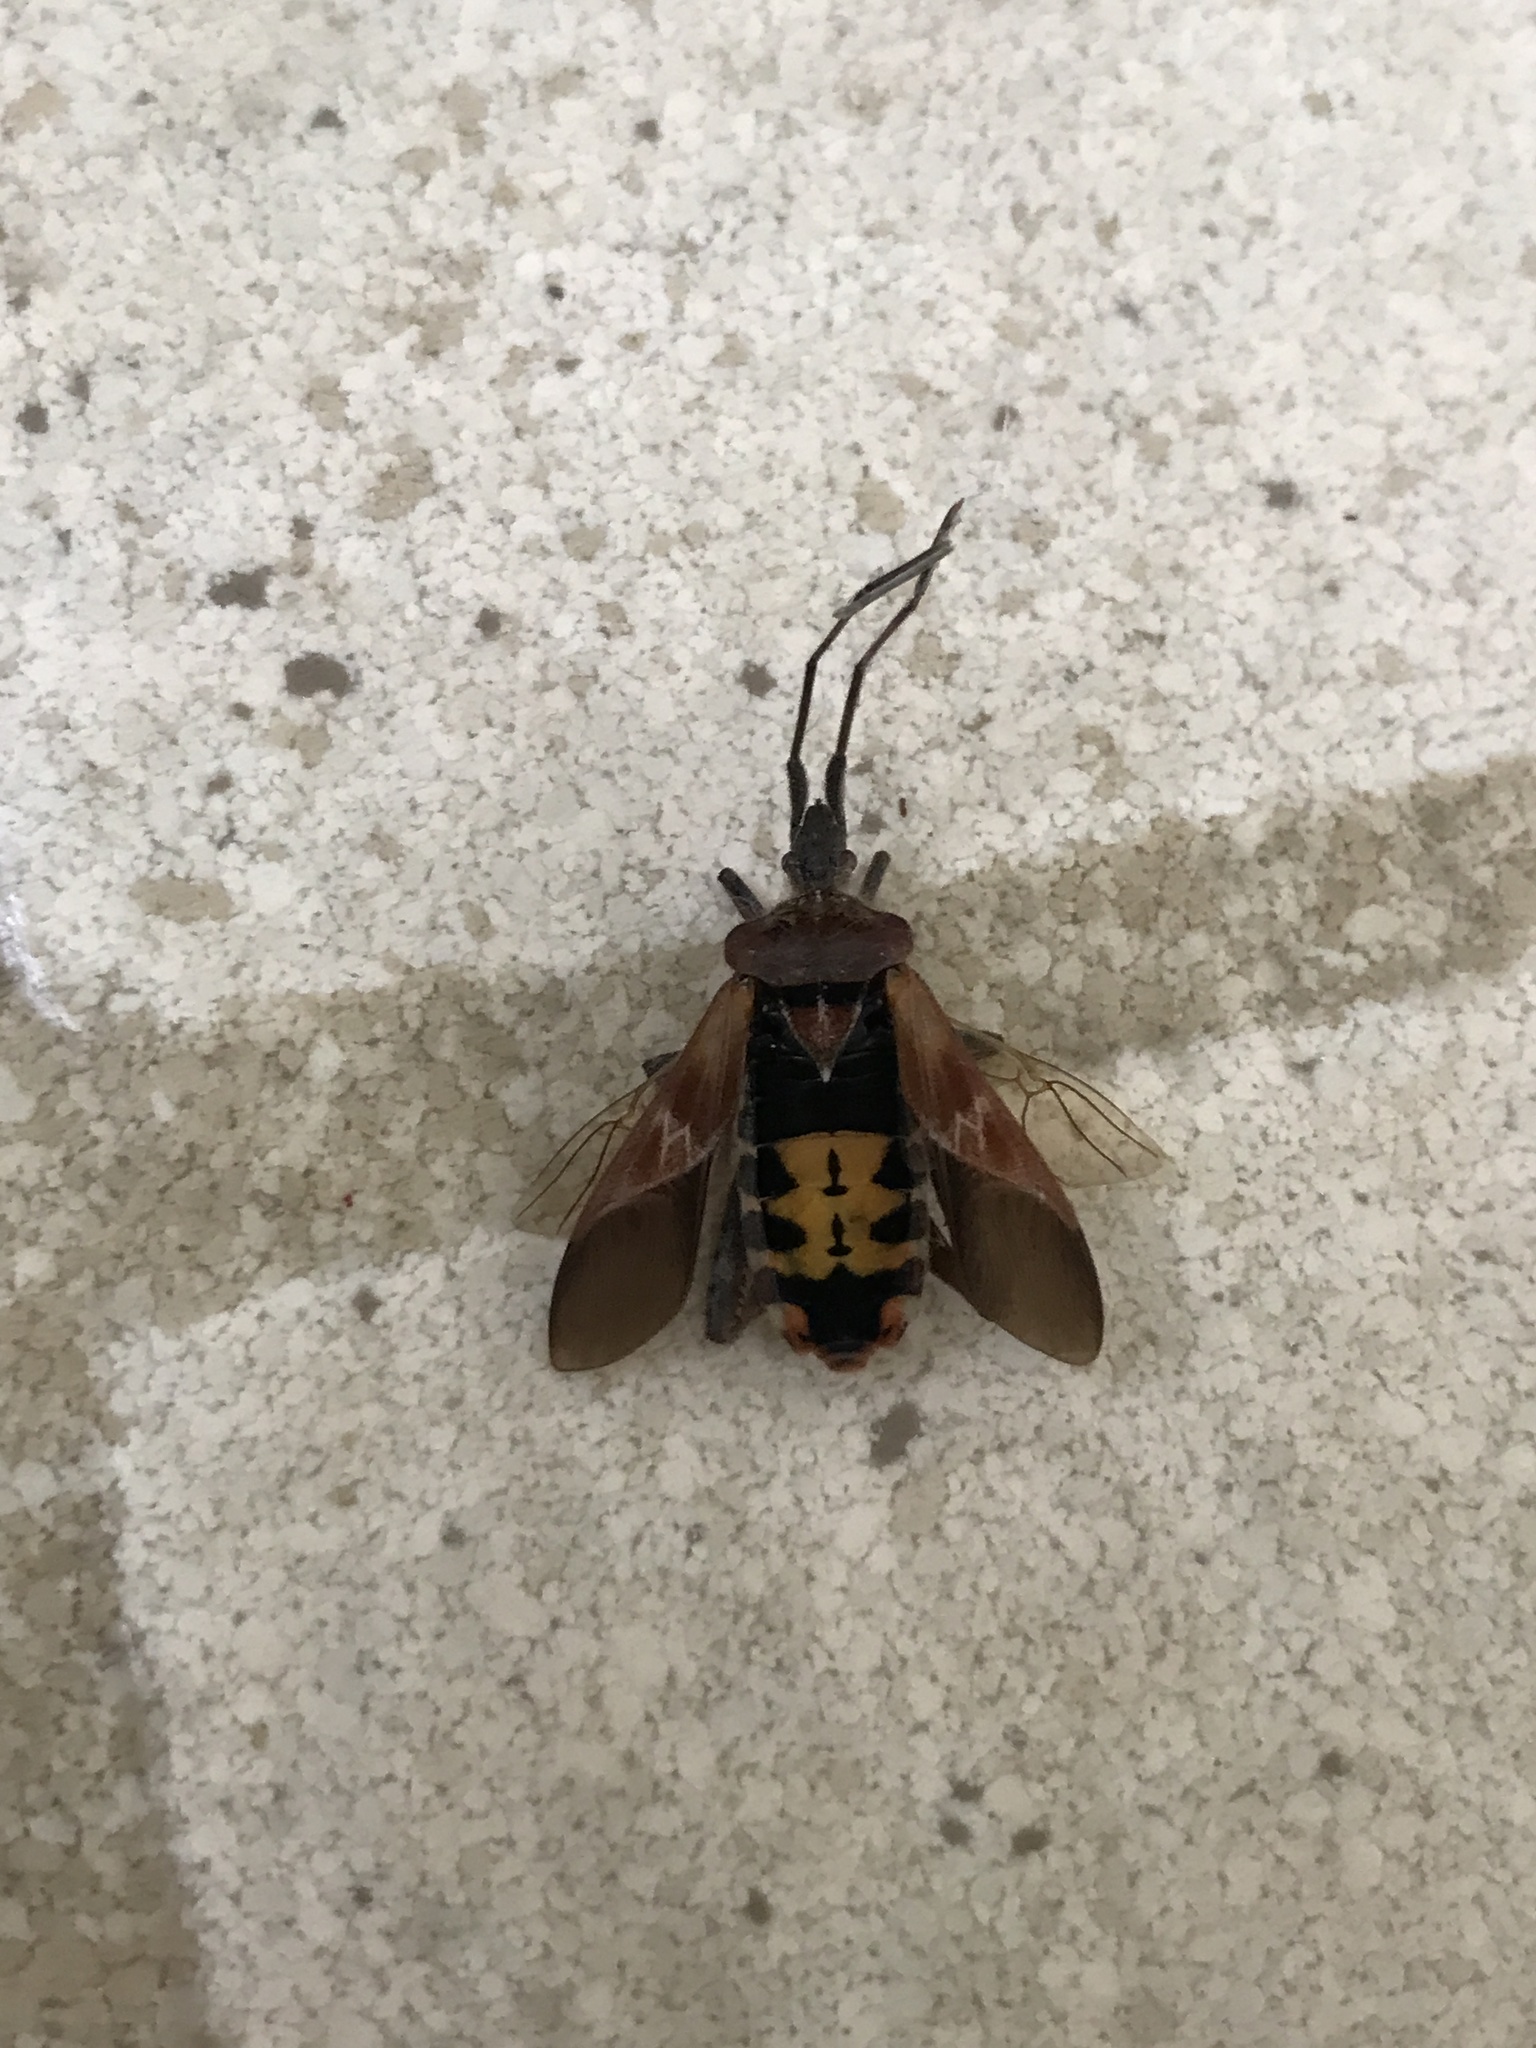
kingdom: Animalia
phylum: Arthropoda
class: Insecta
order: Hemiptera
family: Coreidae
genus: Leptoglossus
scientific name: Leptoglossus occidentalis
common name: Western conifer-seed bug
